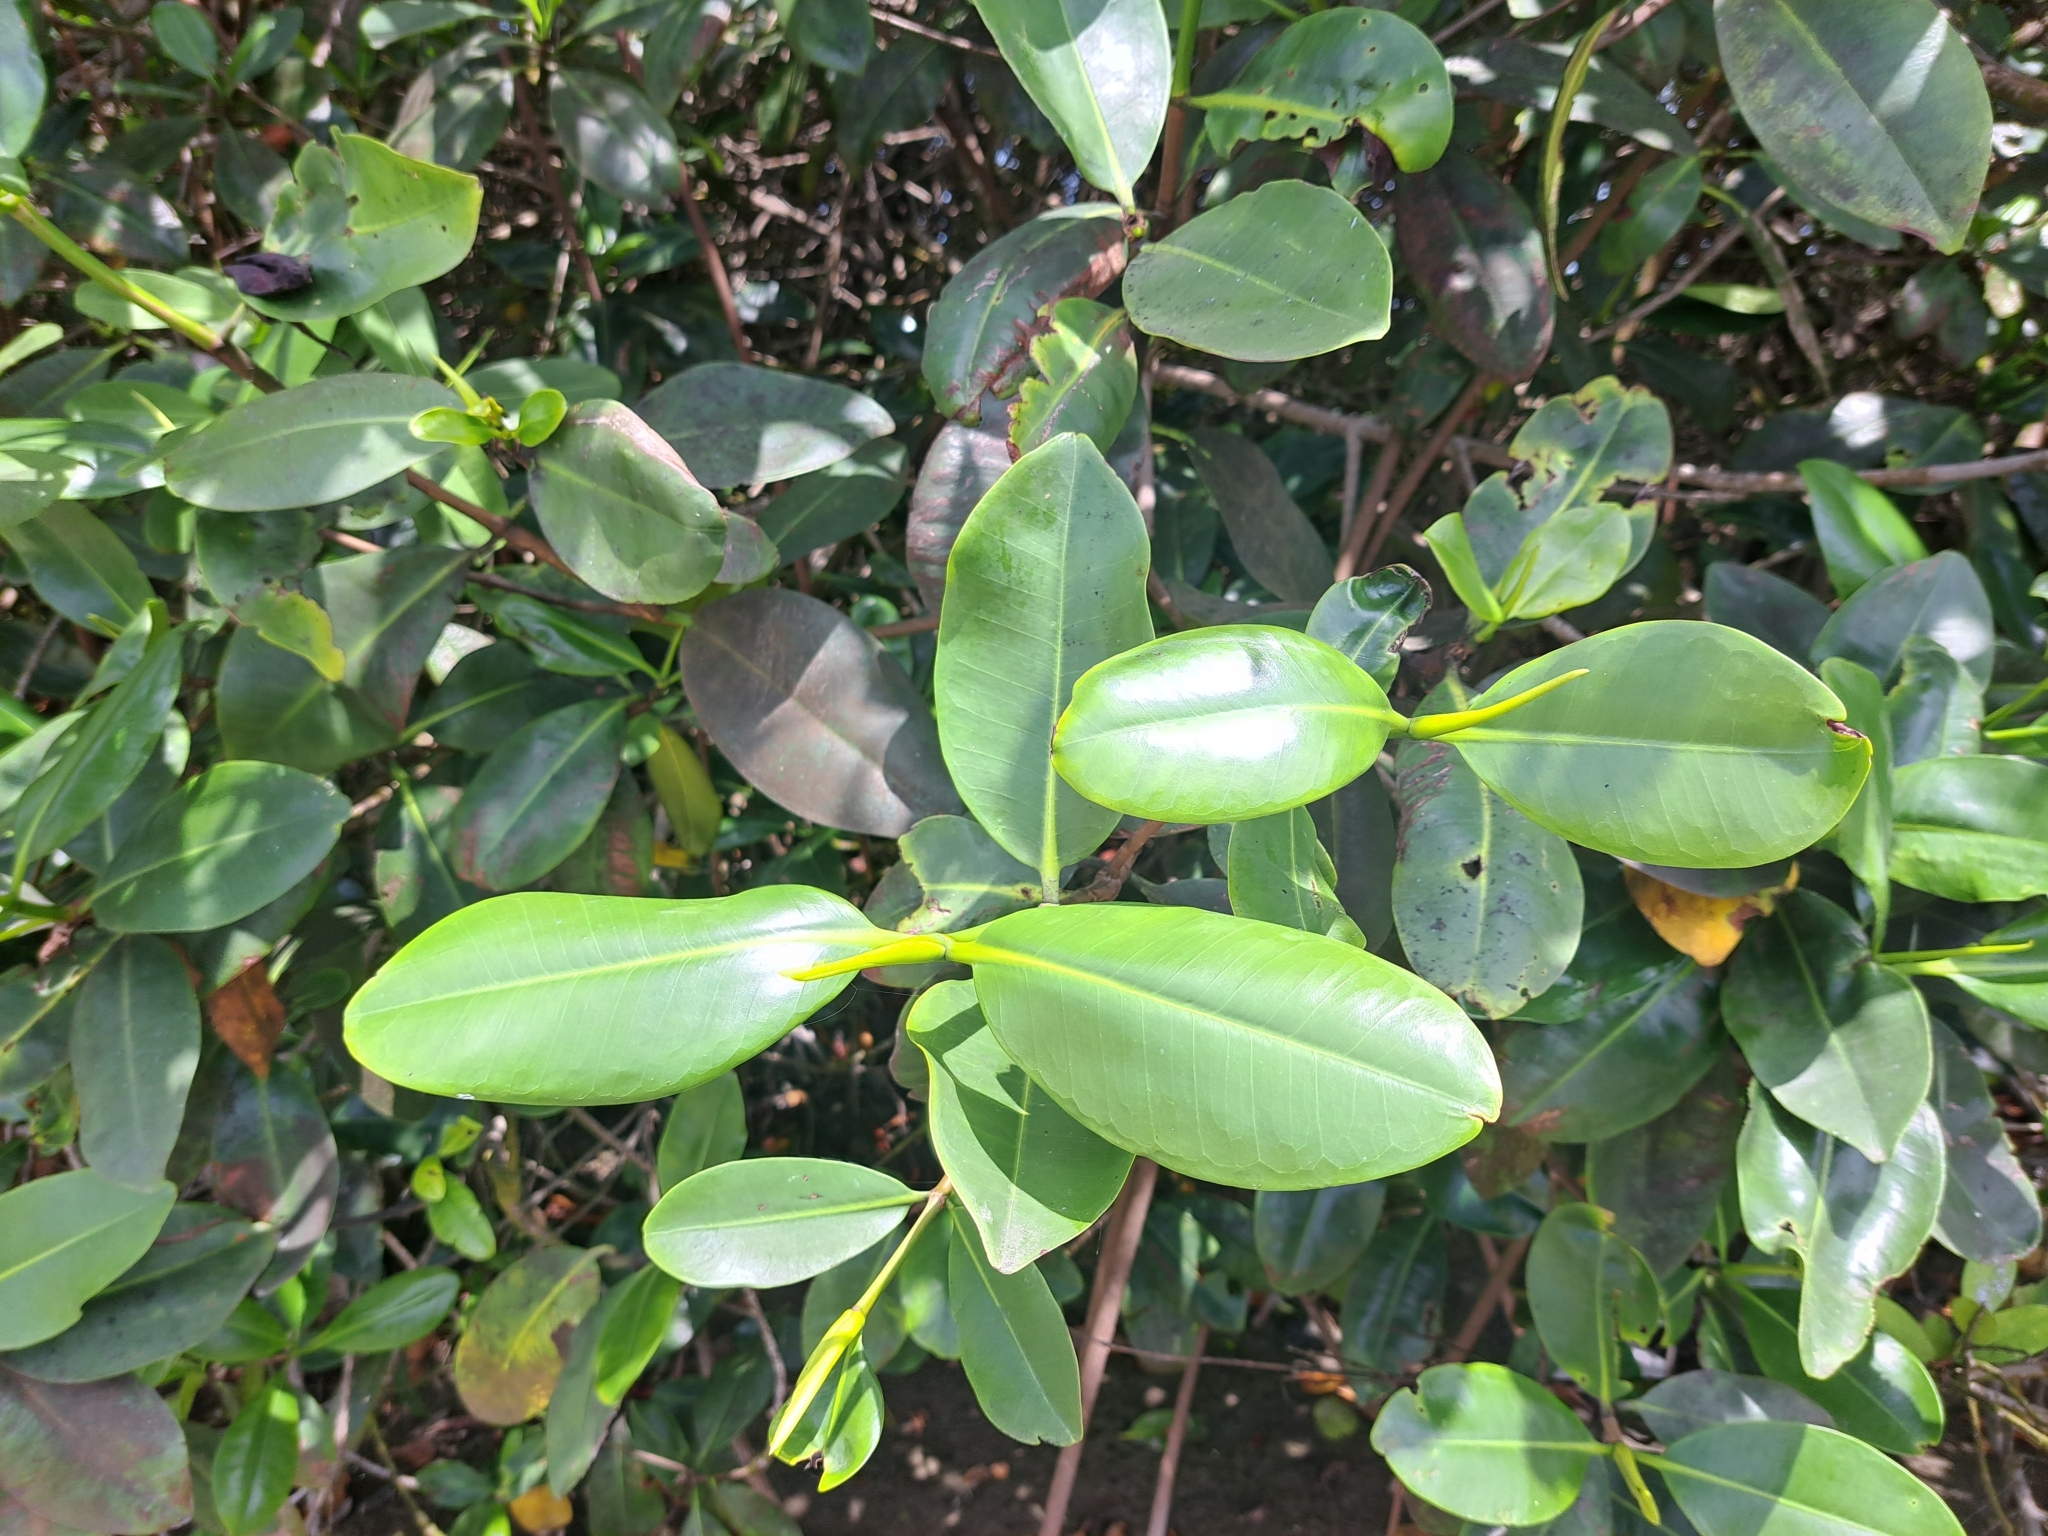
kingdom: Plantae
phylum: Tracheophyta
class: Magnoliopsida
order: Malpighiales
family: Rhizophoraceae
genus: Rhizophora
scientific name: Rhizophora mangle
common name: Red mangrove
